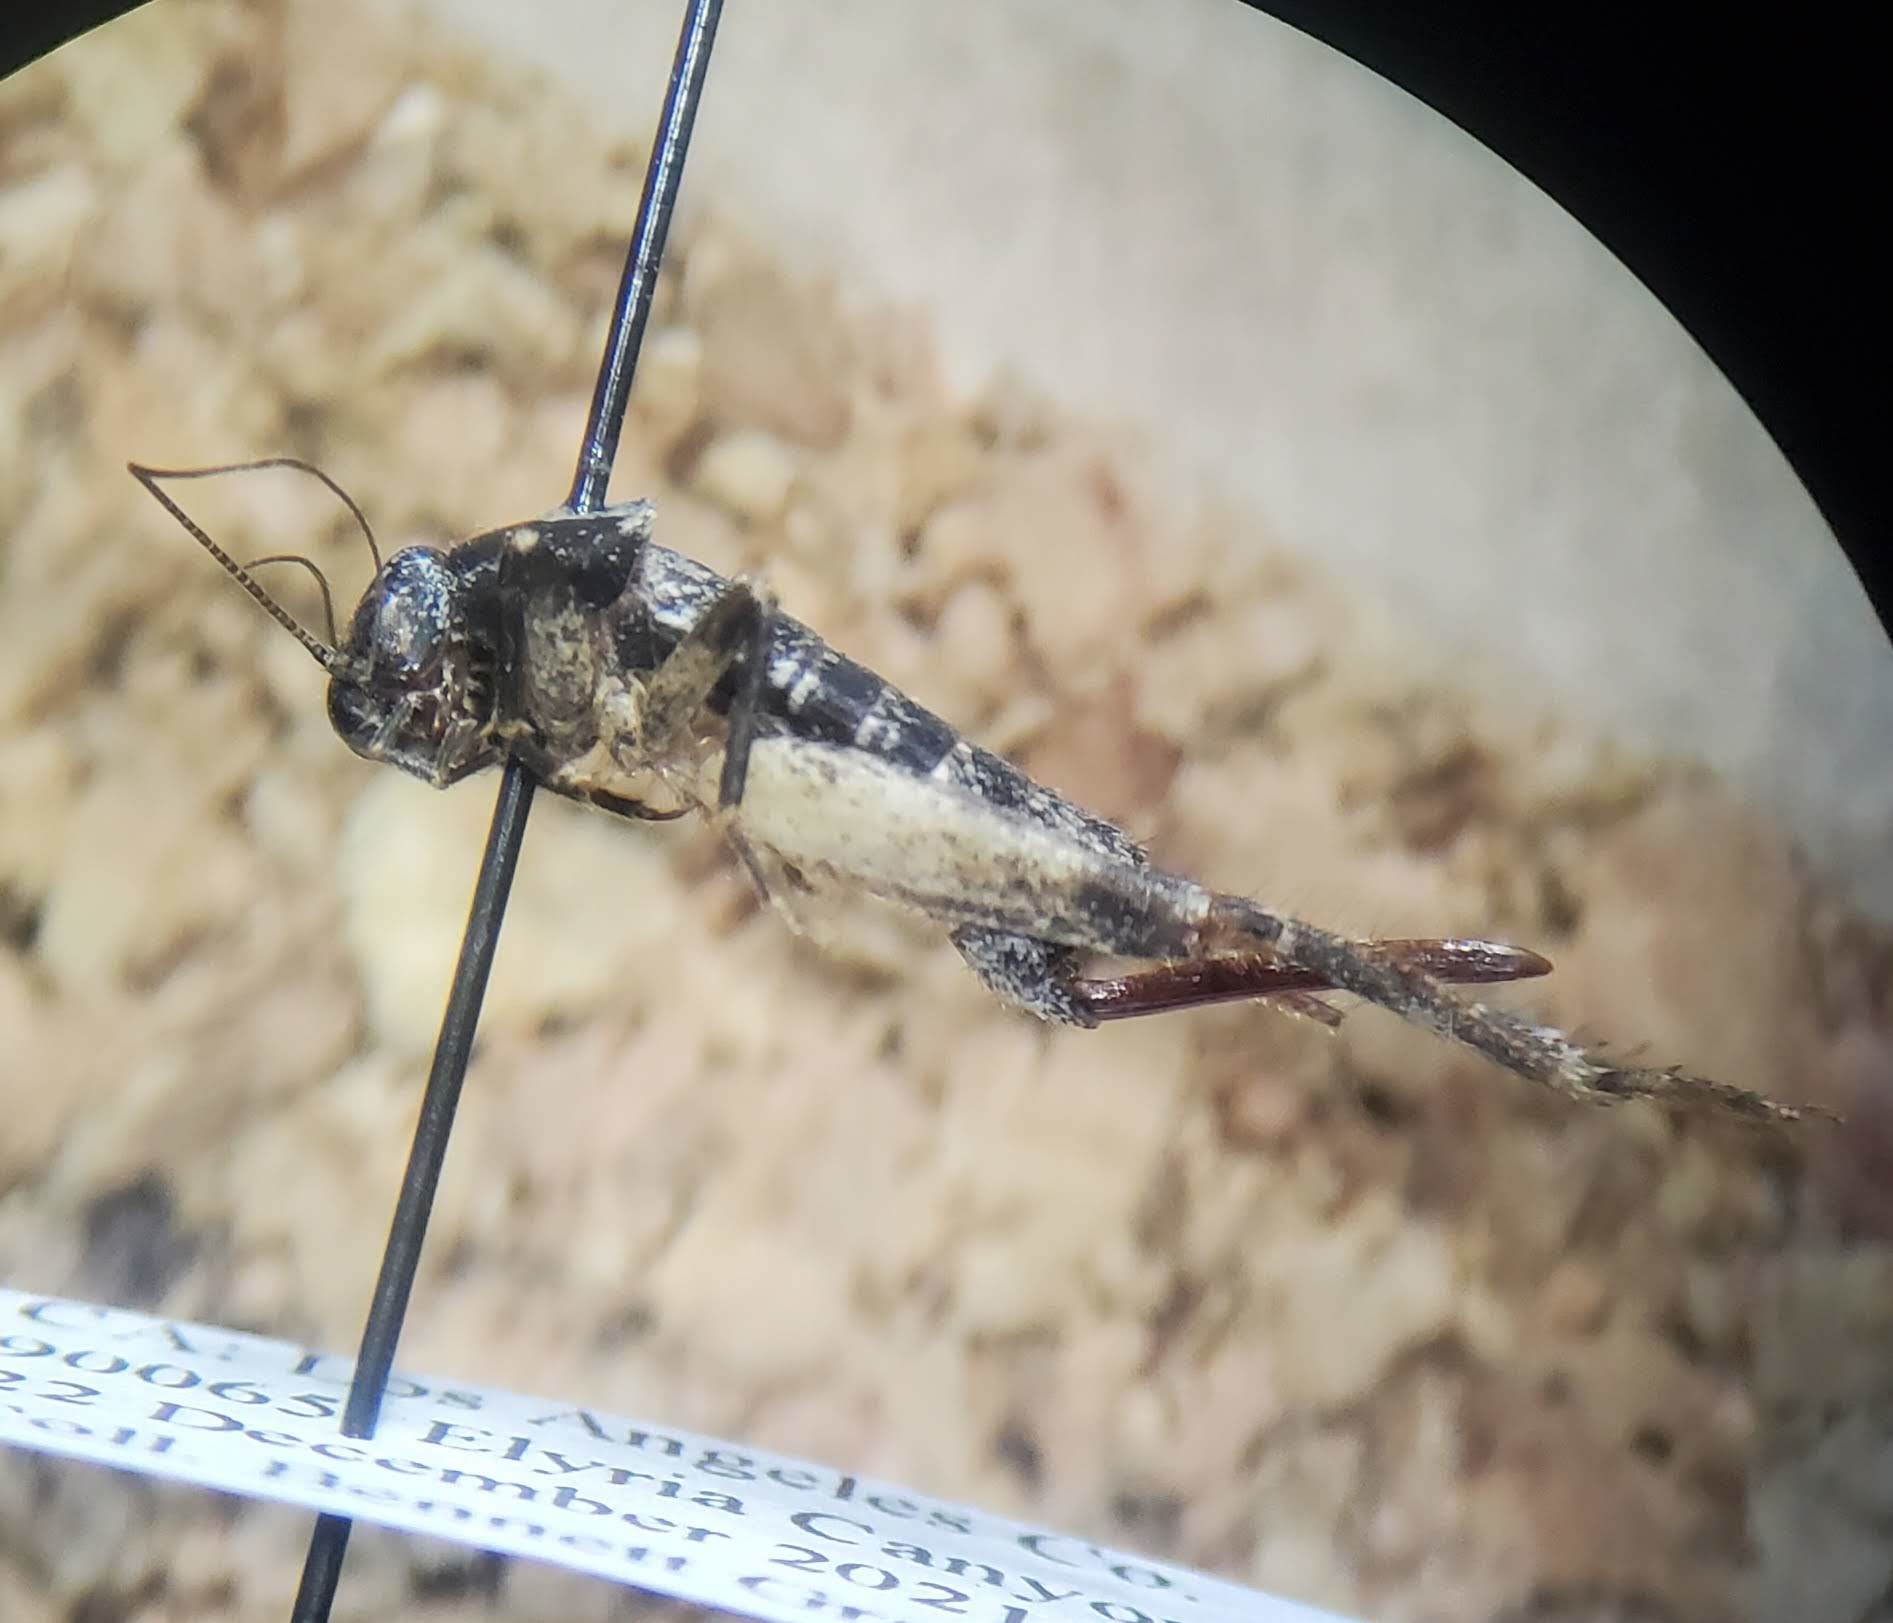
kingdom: Animalia
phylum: Arthropoda
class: Insecta
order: Orthoptera
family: Mogoplistidae
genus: Hoplosphyrum
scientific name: Hoplosphyrum boreale
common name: Long-winged scaly cricket
